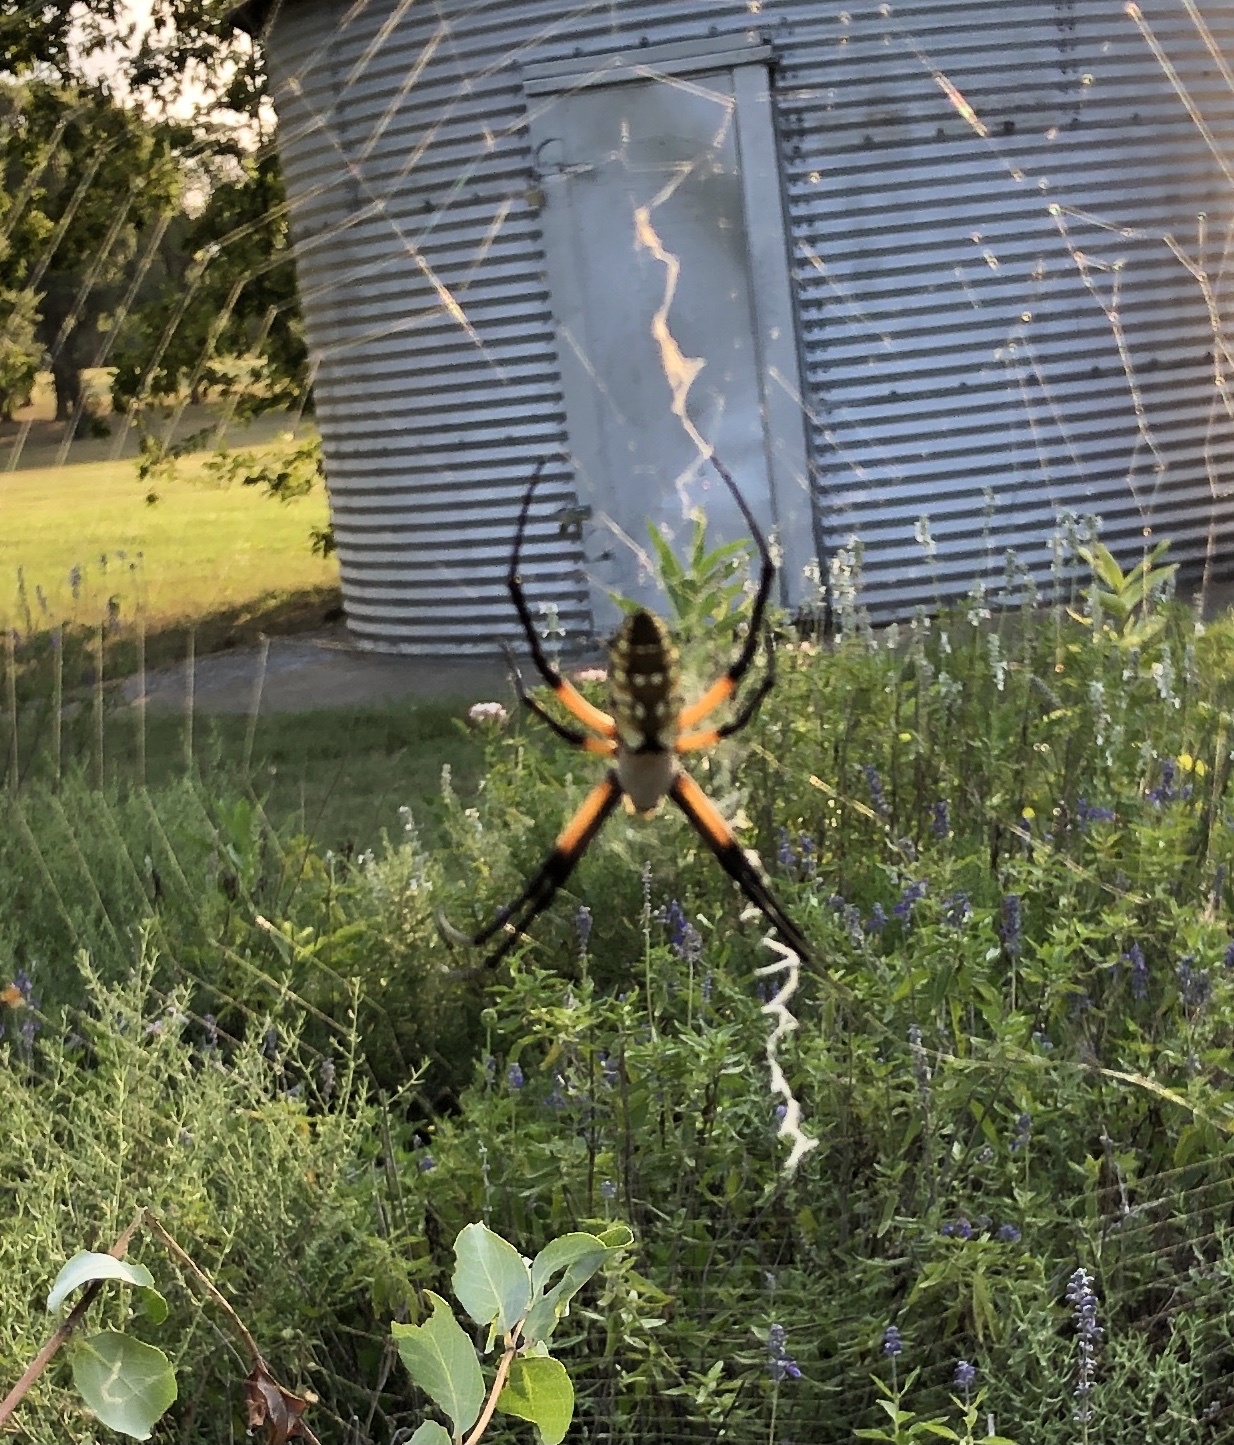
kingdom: Animalia
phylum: Arthropoda
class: Arachnida
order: Araneae
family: Araneidae
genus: Argiope
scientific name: Argiope aurantia
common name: Orb weavers
